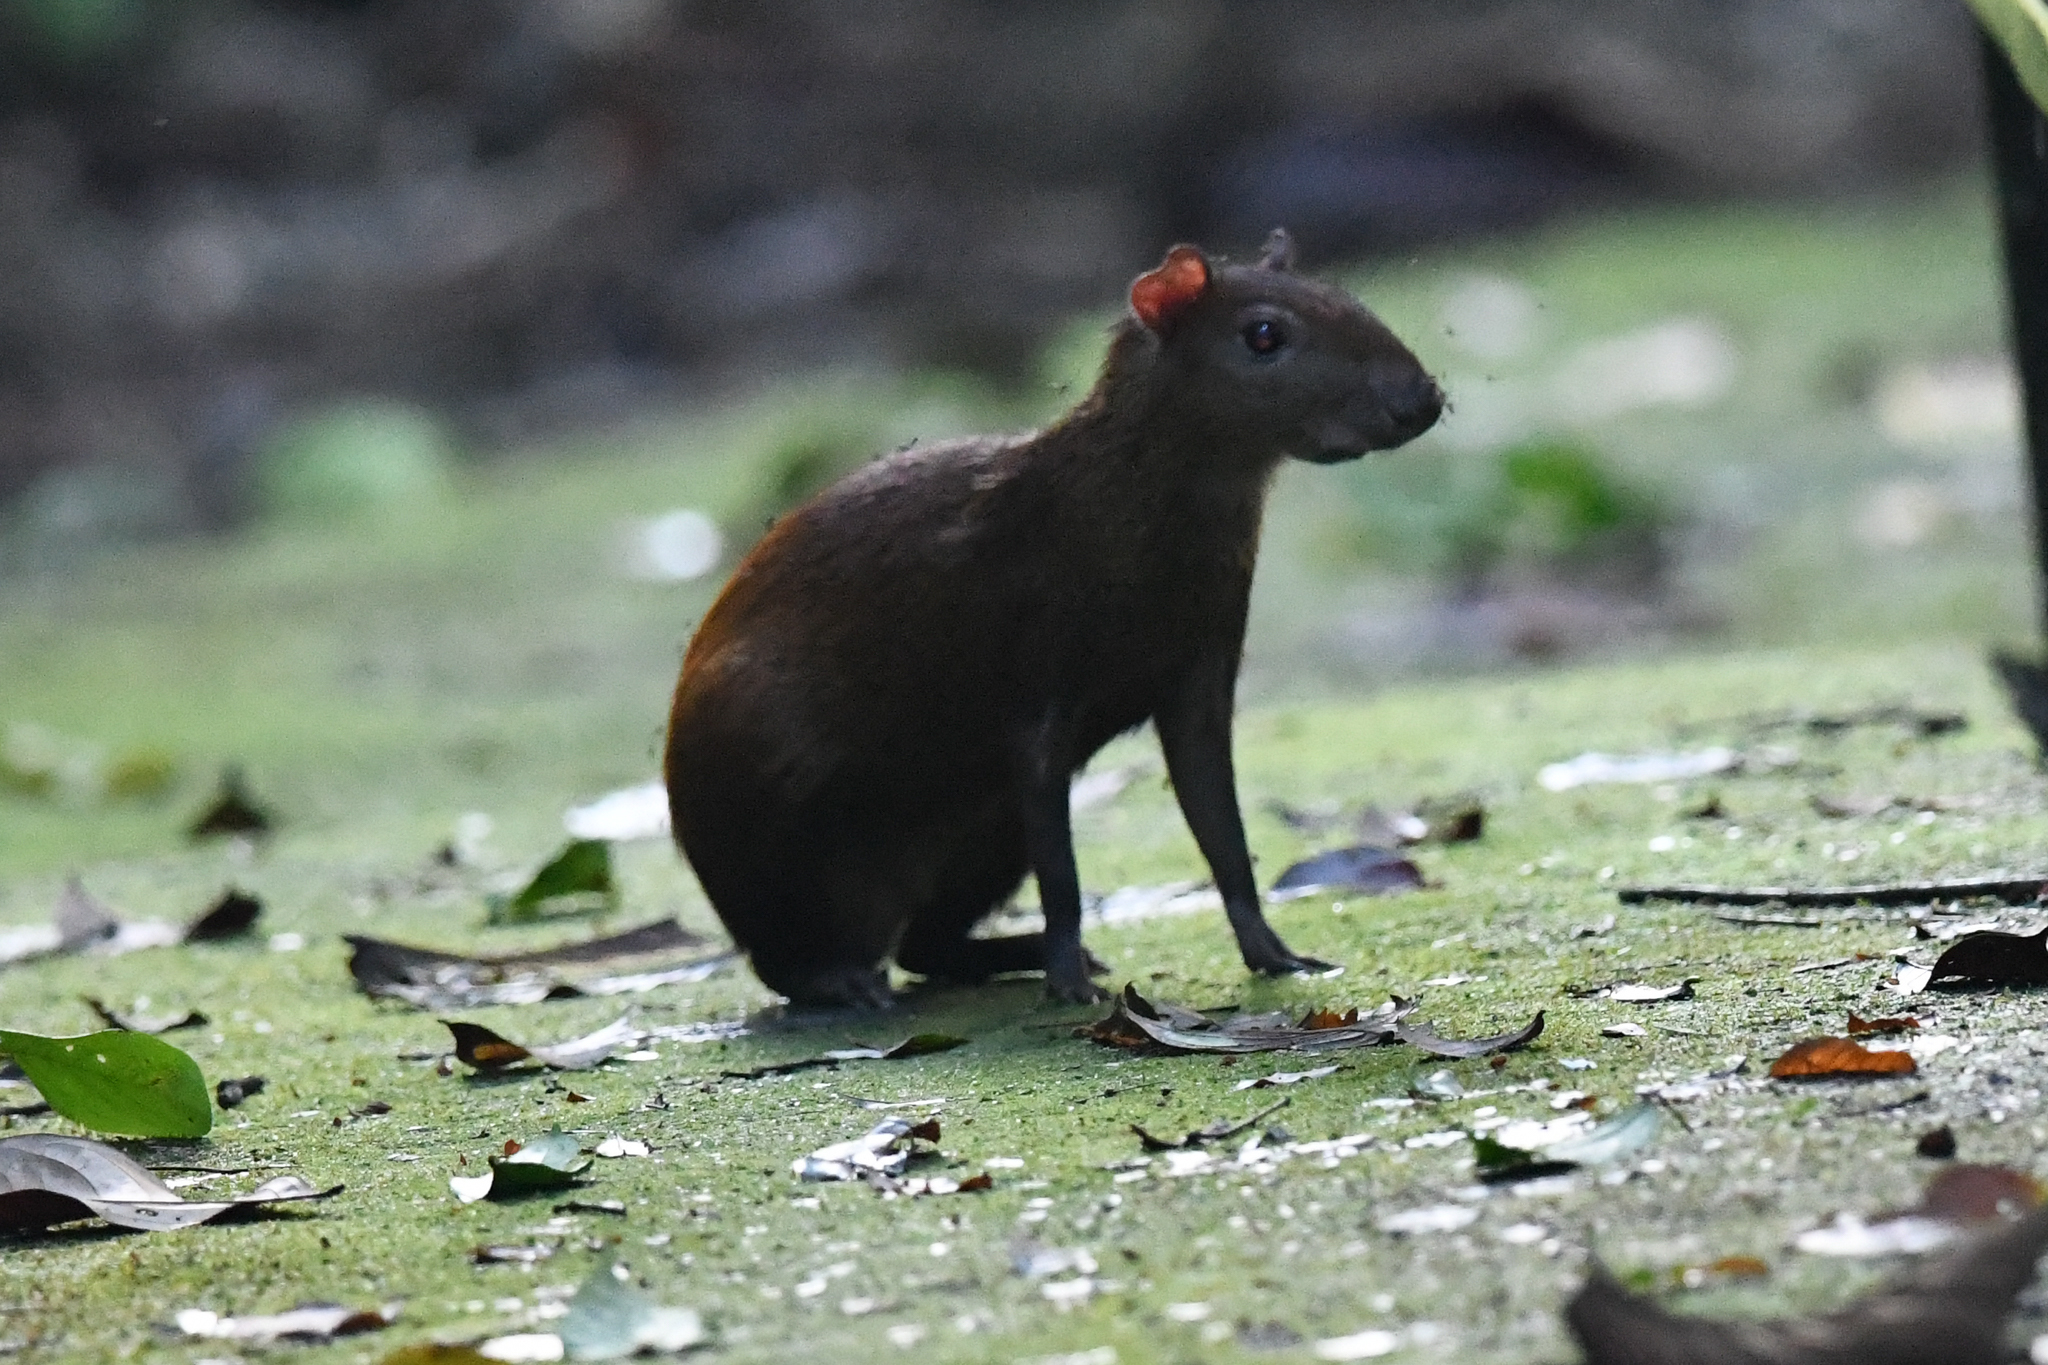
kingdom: Animalia
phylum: Chordata
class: Mammalia
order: Rodentia
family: Dasyproctidae
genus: Dasyprocta
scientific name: Dasyprocta punctata
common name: Central american agouti
